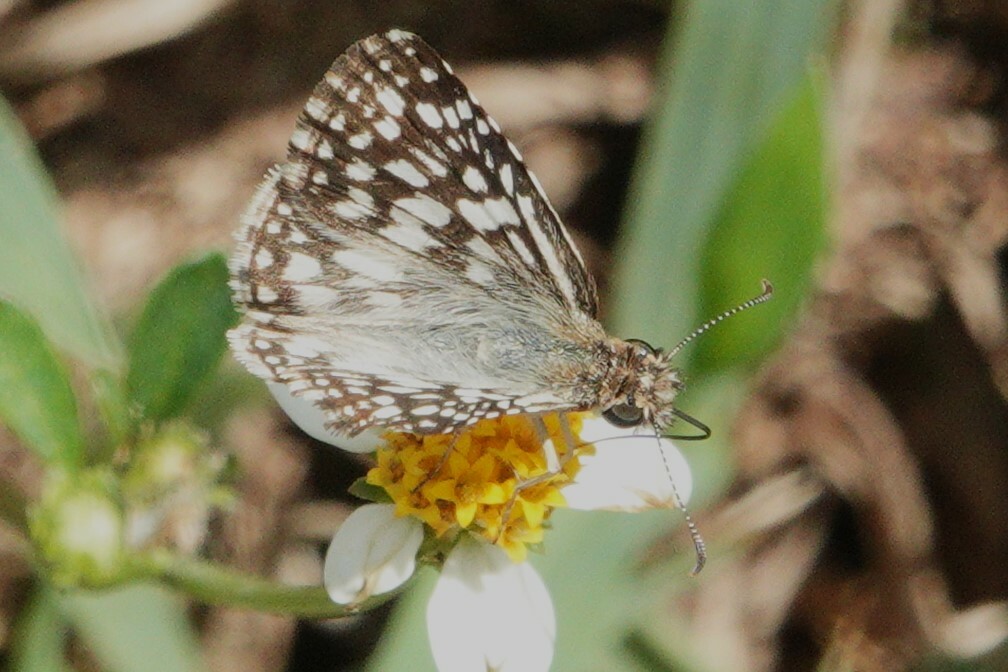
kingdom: Animalia
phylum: Arthropoda
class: Insecta
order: Lepidoptera
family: Hesperiidae
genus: Pyrgus
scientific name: Pyrgus oileus
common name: Tropical checkered-skipper
